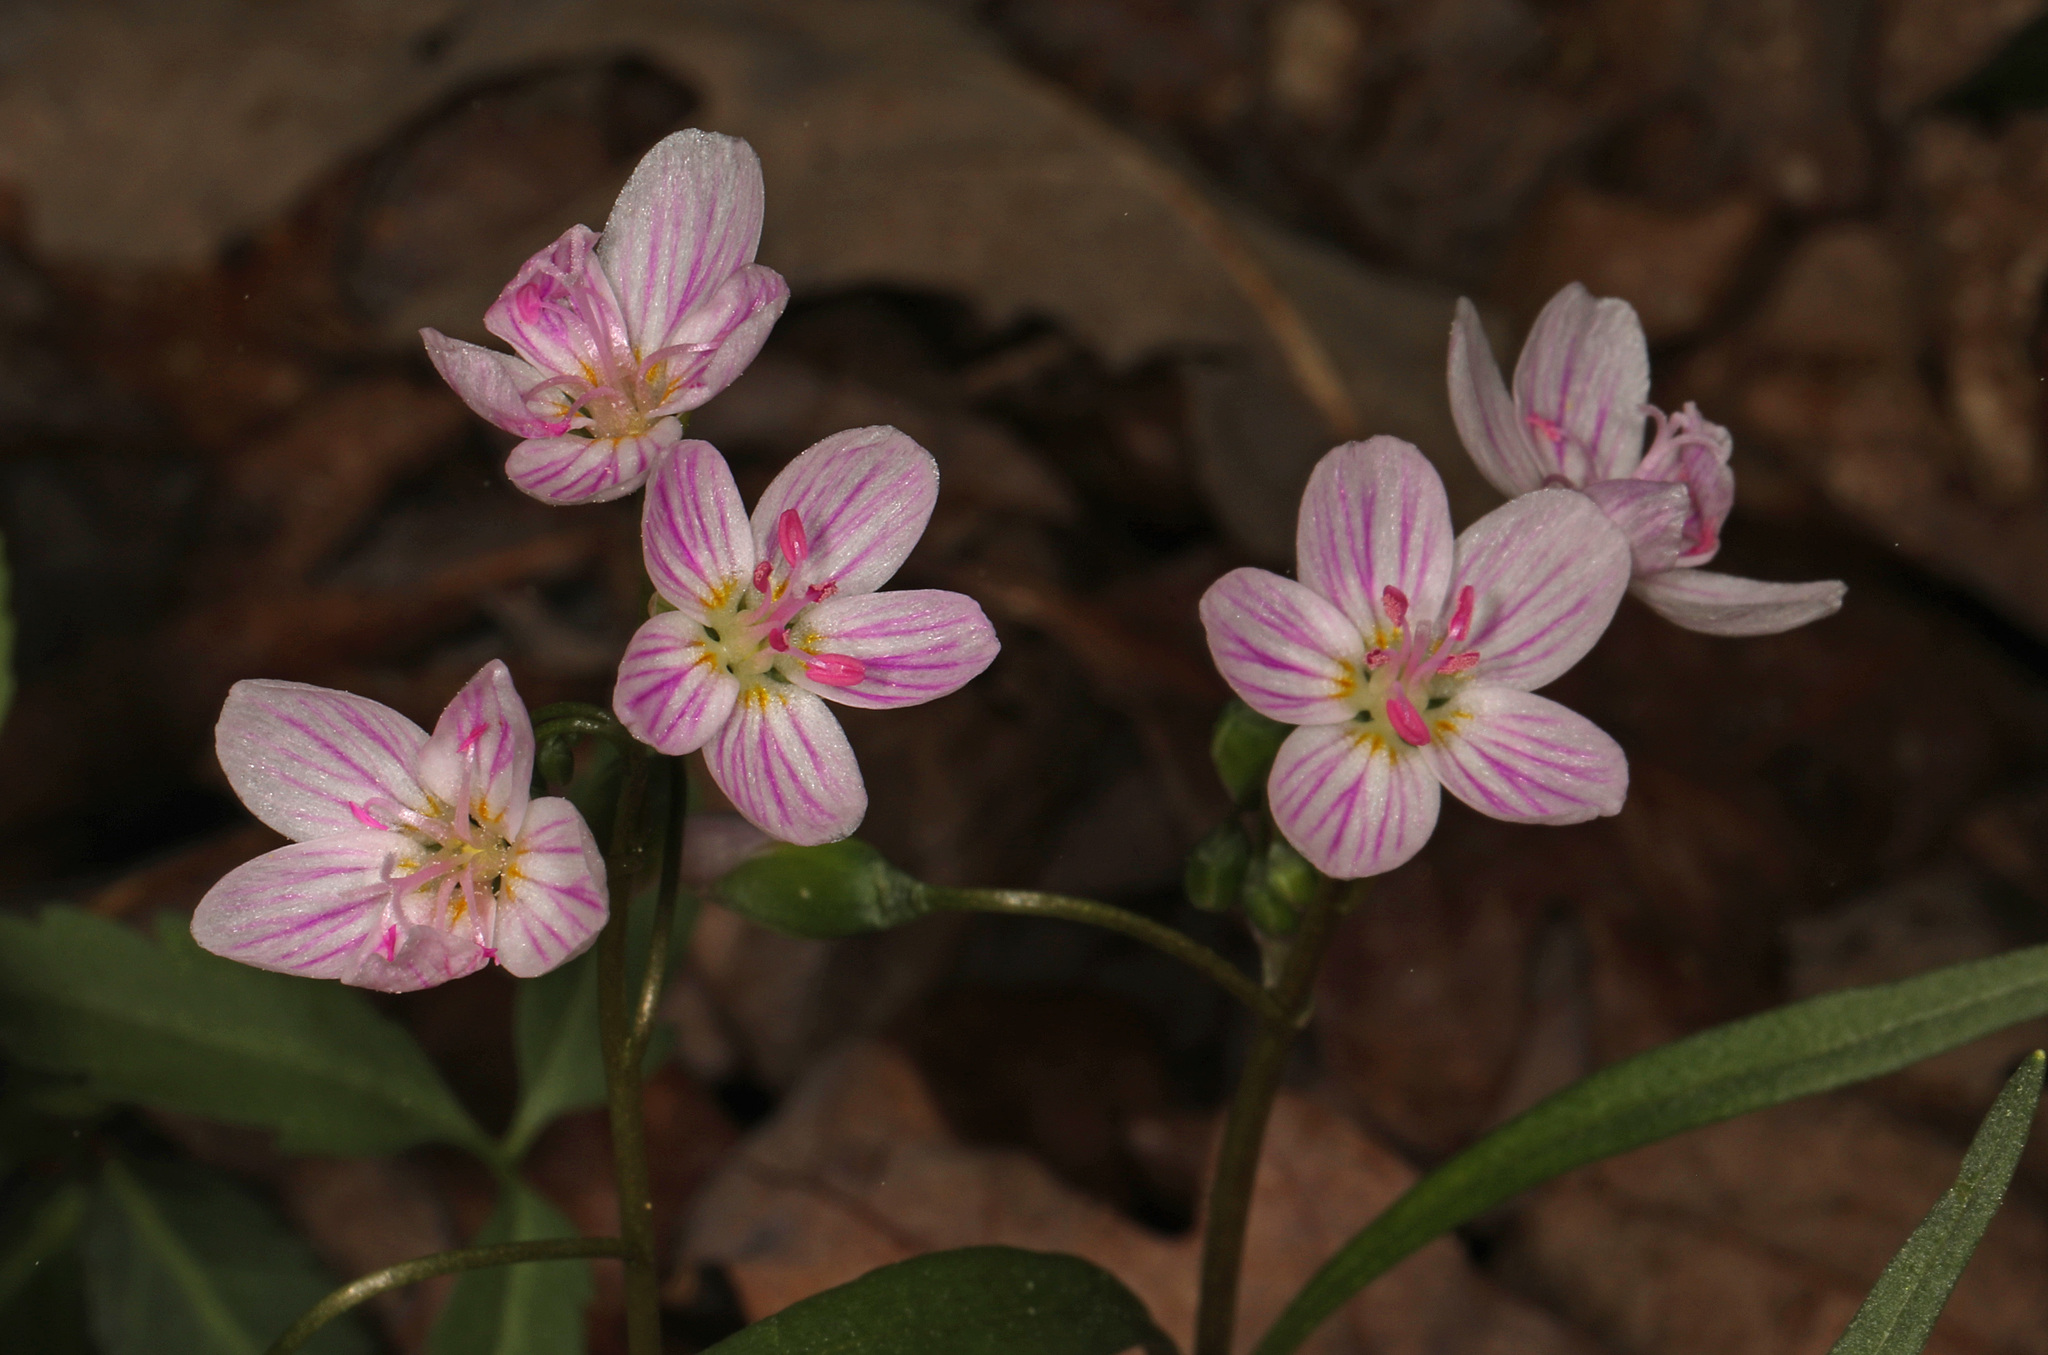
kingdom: Plantae
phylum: Tracheophyta
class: Magnoliopsida
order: Caryophyllales
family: Montiaceae
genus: Claytonia
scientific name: Claytonia virginica
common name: Virginia springbeauty
